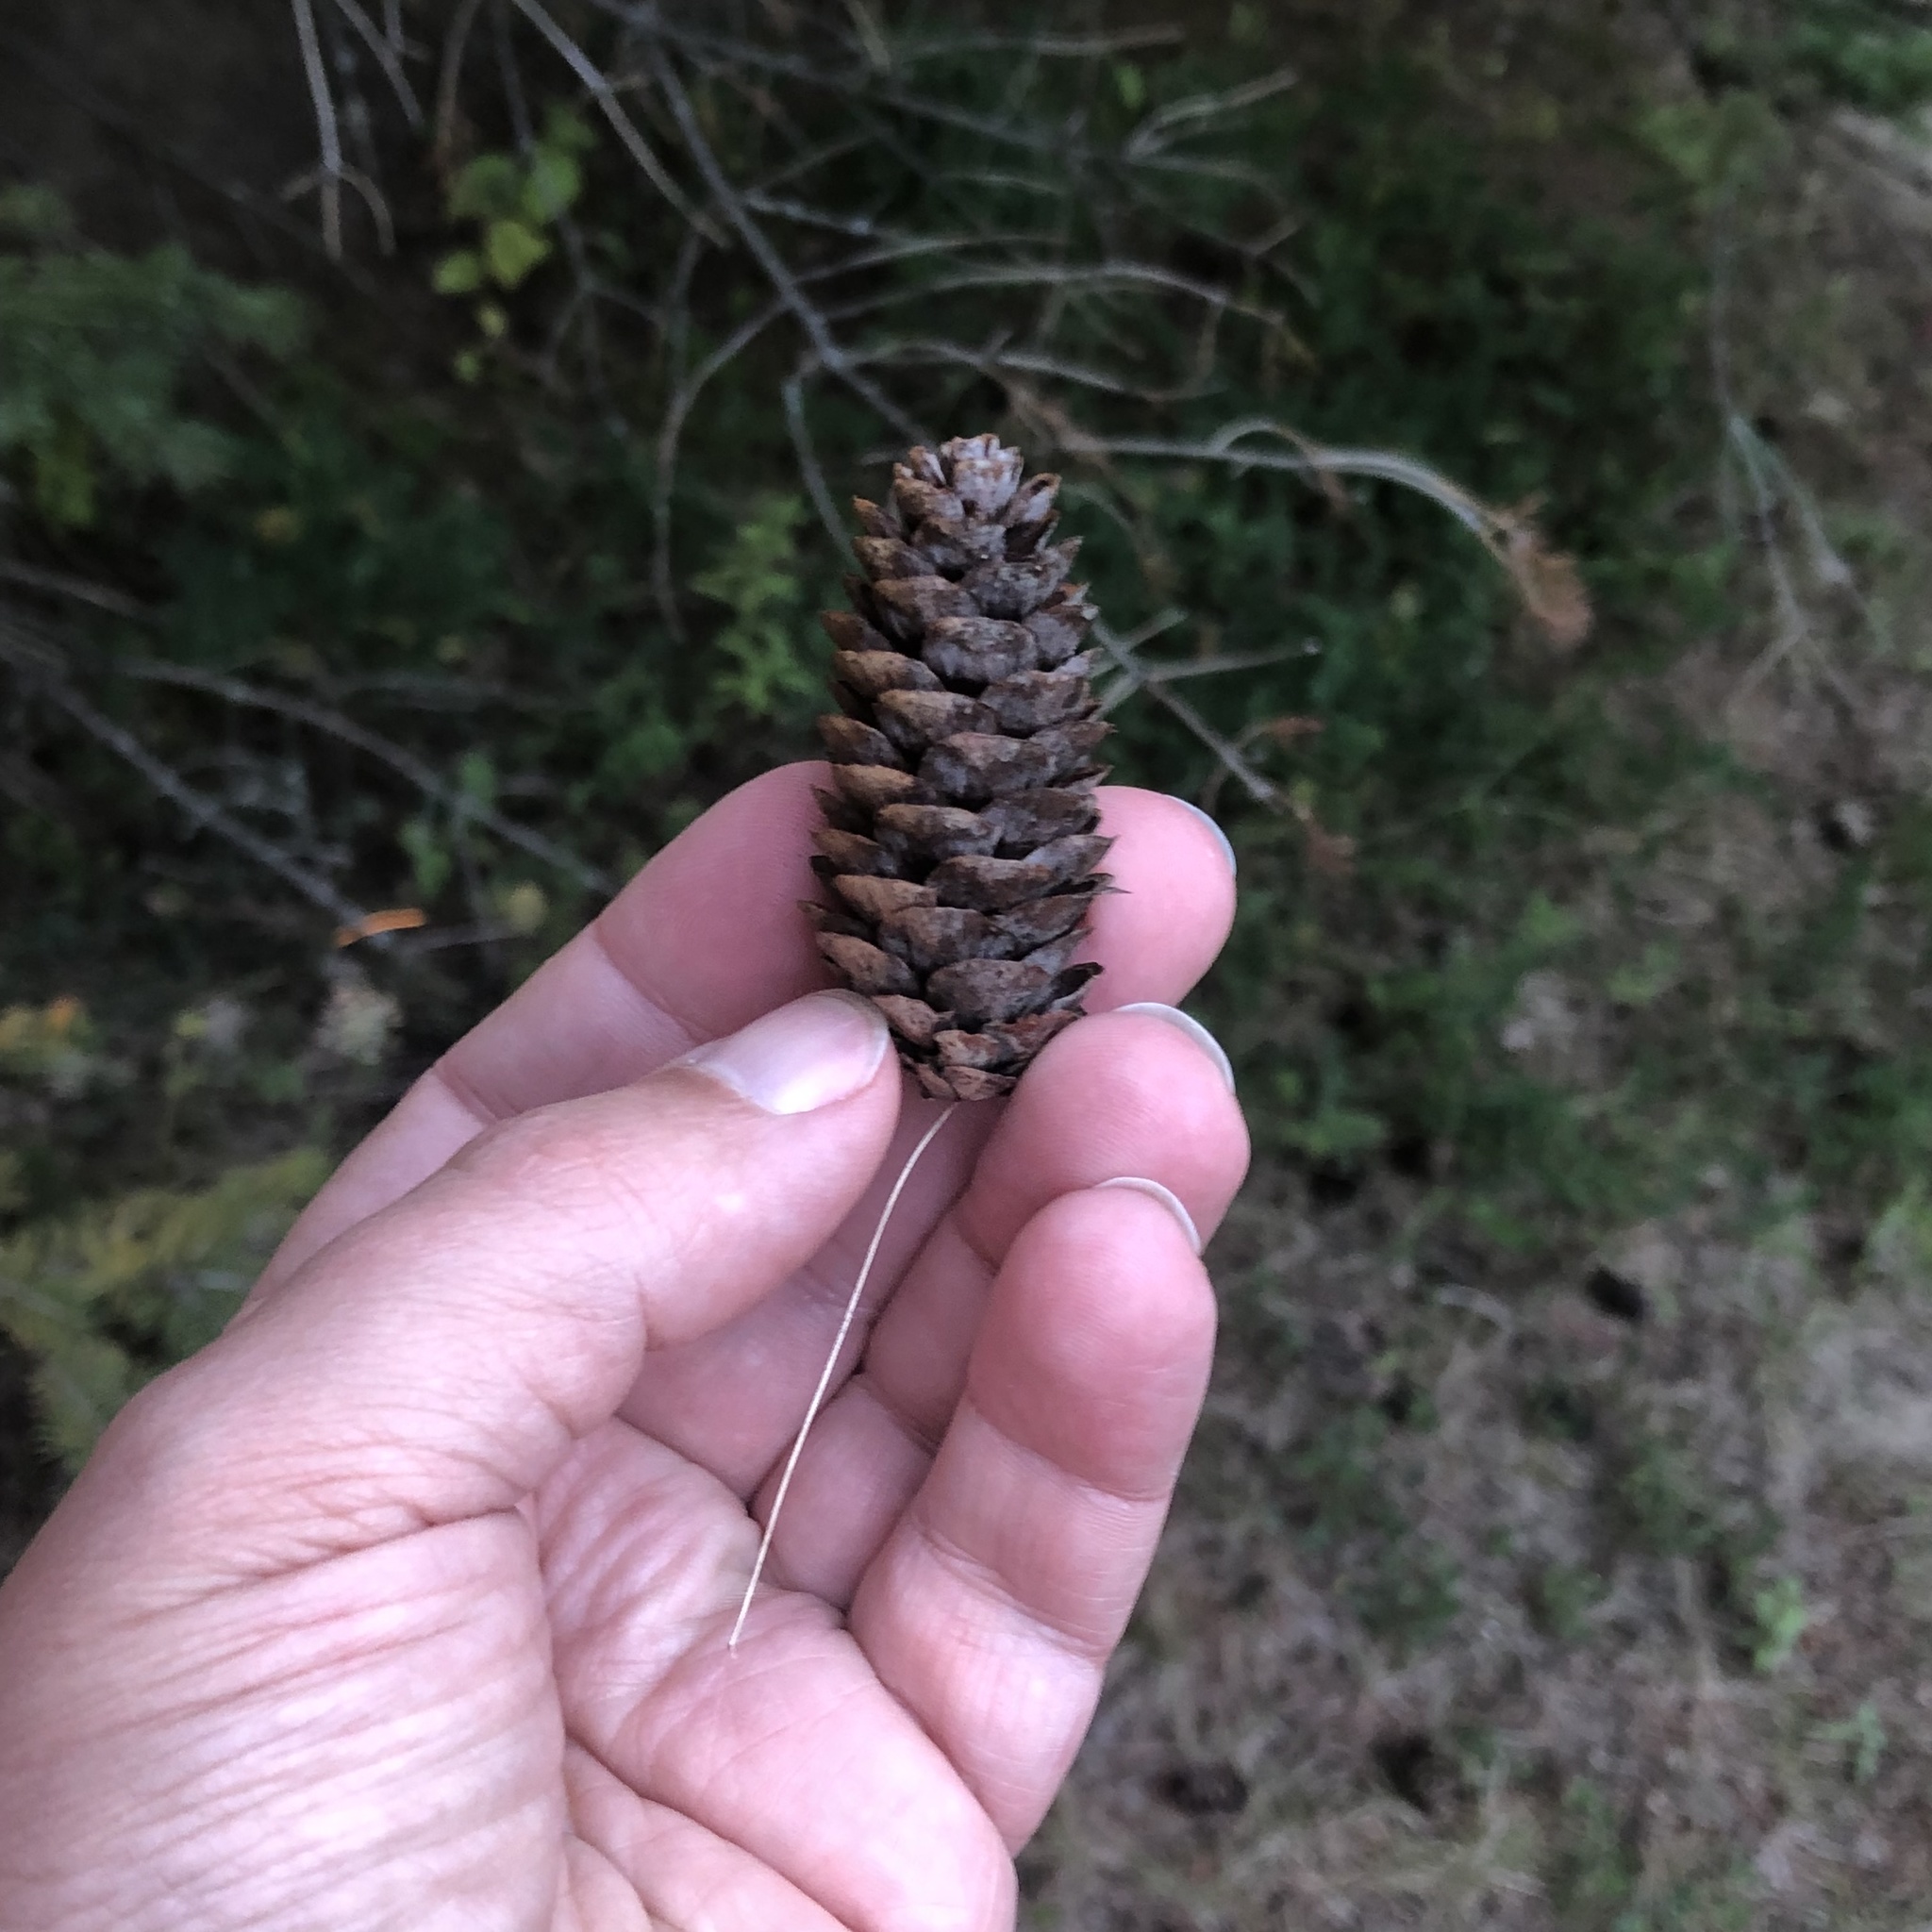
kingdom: Plantae
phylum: Tracheophyta
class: Pinopsida
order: Pinales
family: Pinaceae
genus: Picea
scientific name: Picea glauca
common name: White spruce
